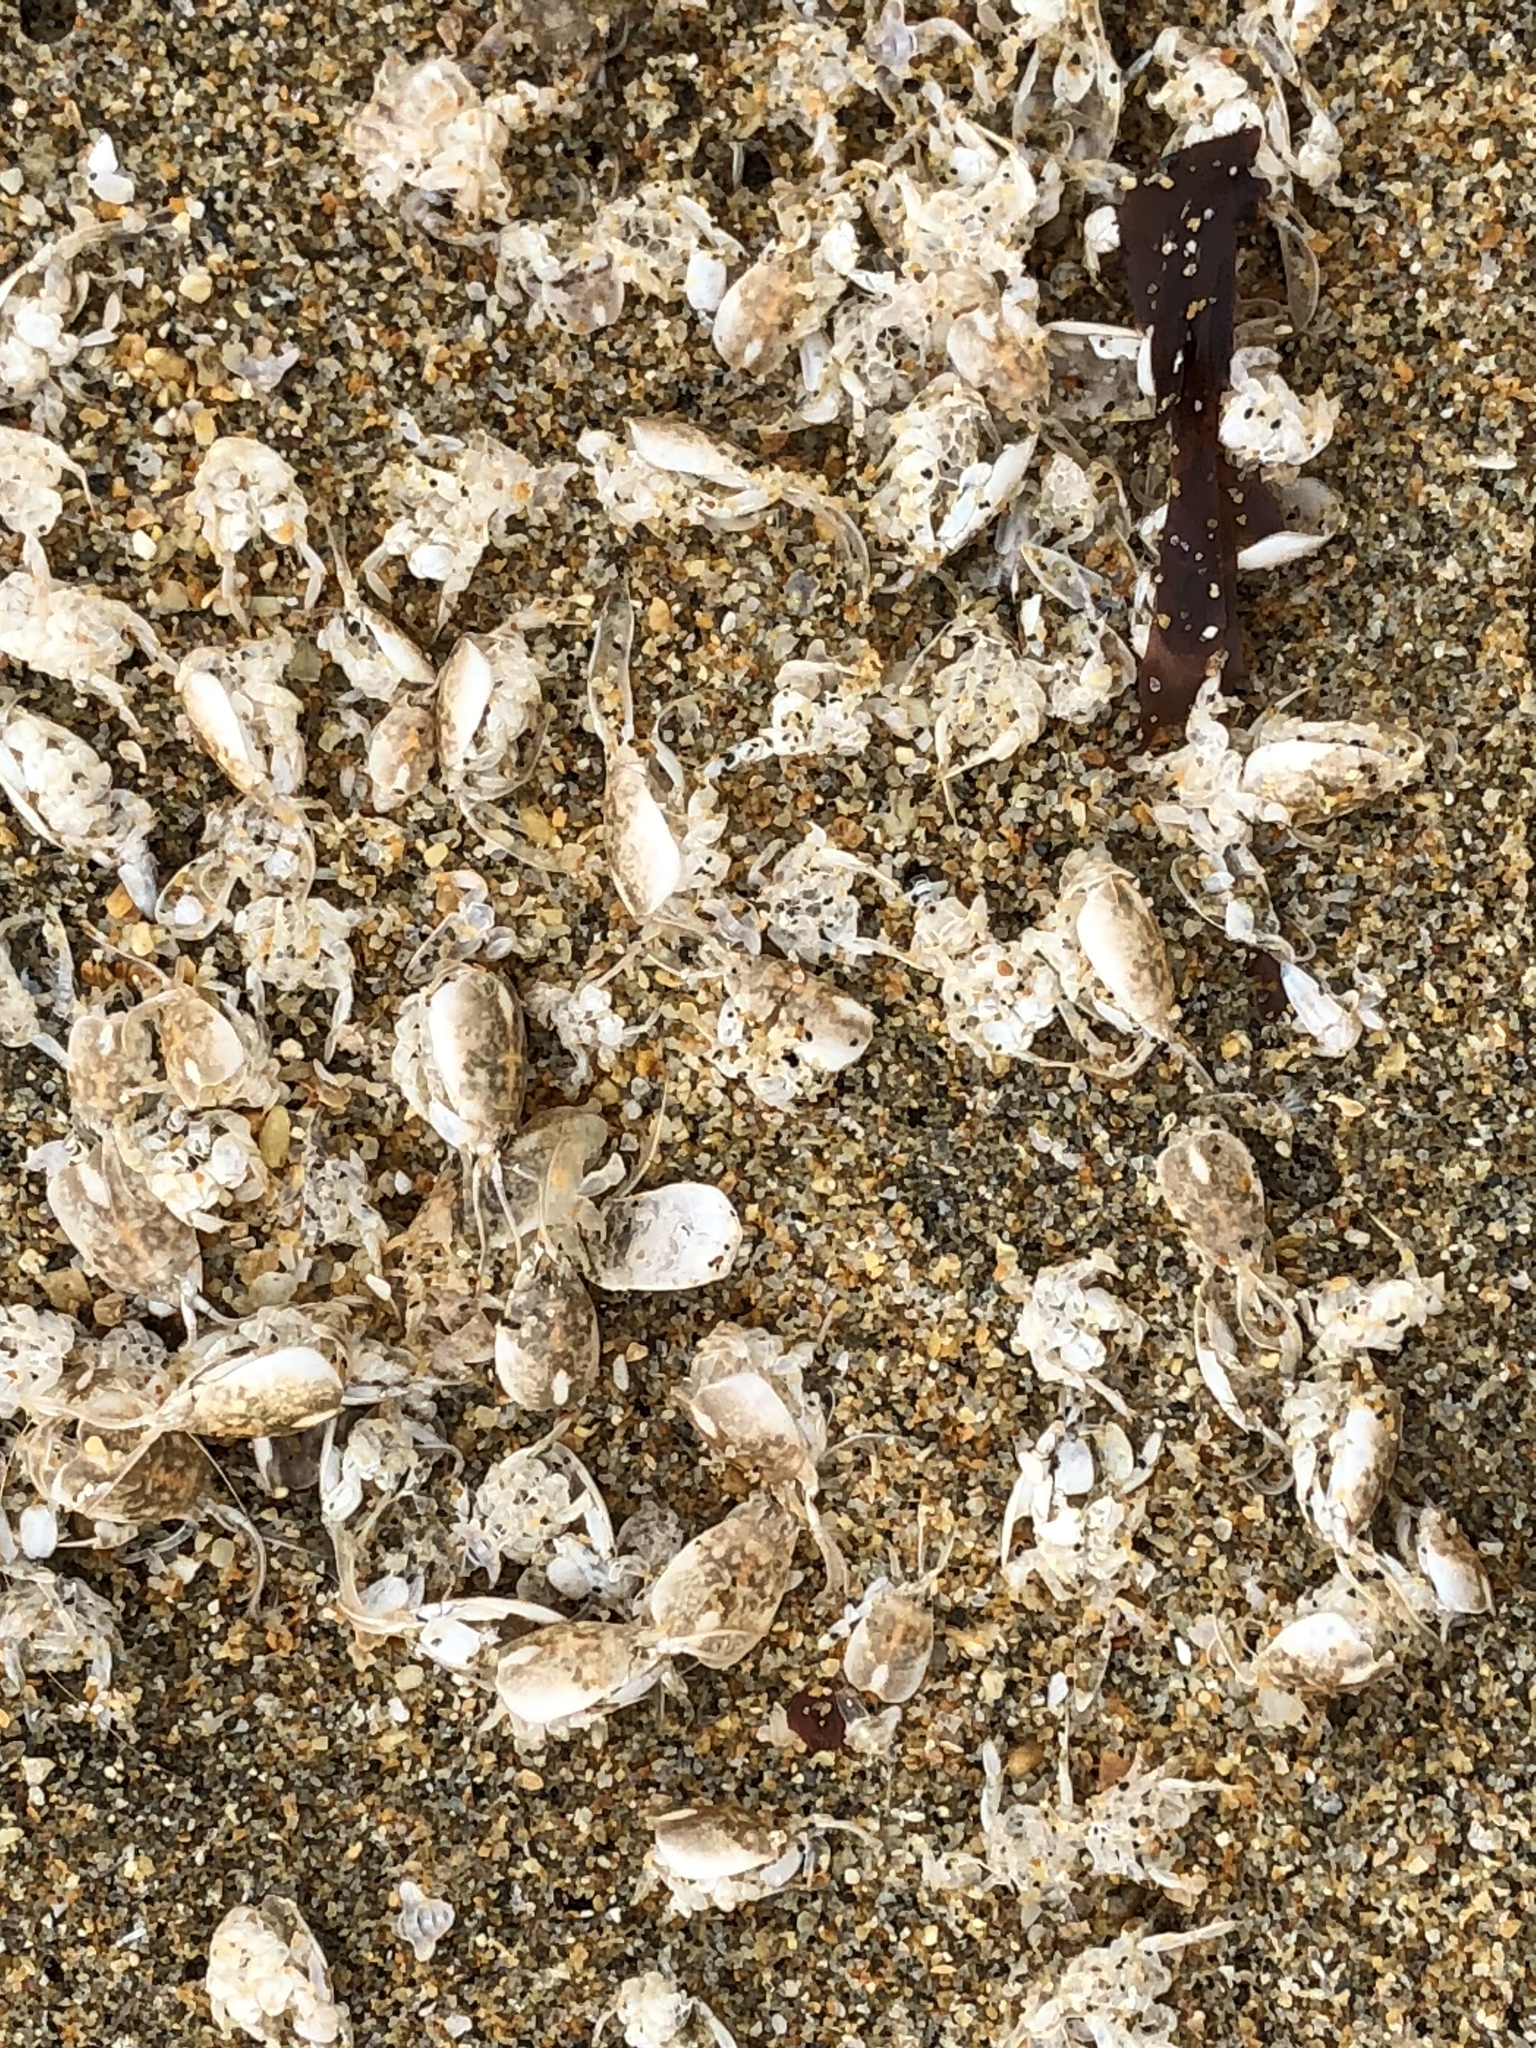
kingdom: Animalia
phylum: Arthropoda
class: Malacostraca
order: Decapoda
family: Hippidae
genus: Emerita
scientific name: Emerita analoga
